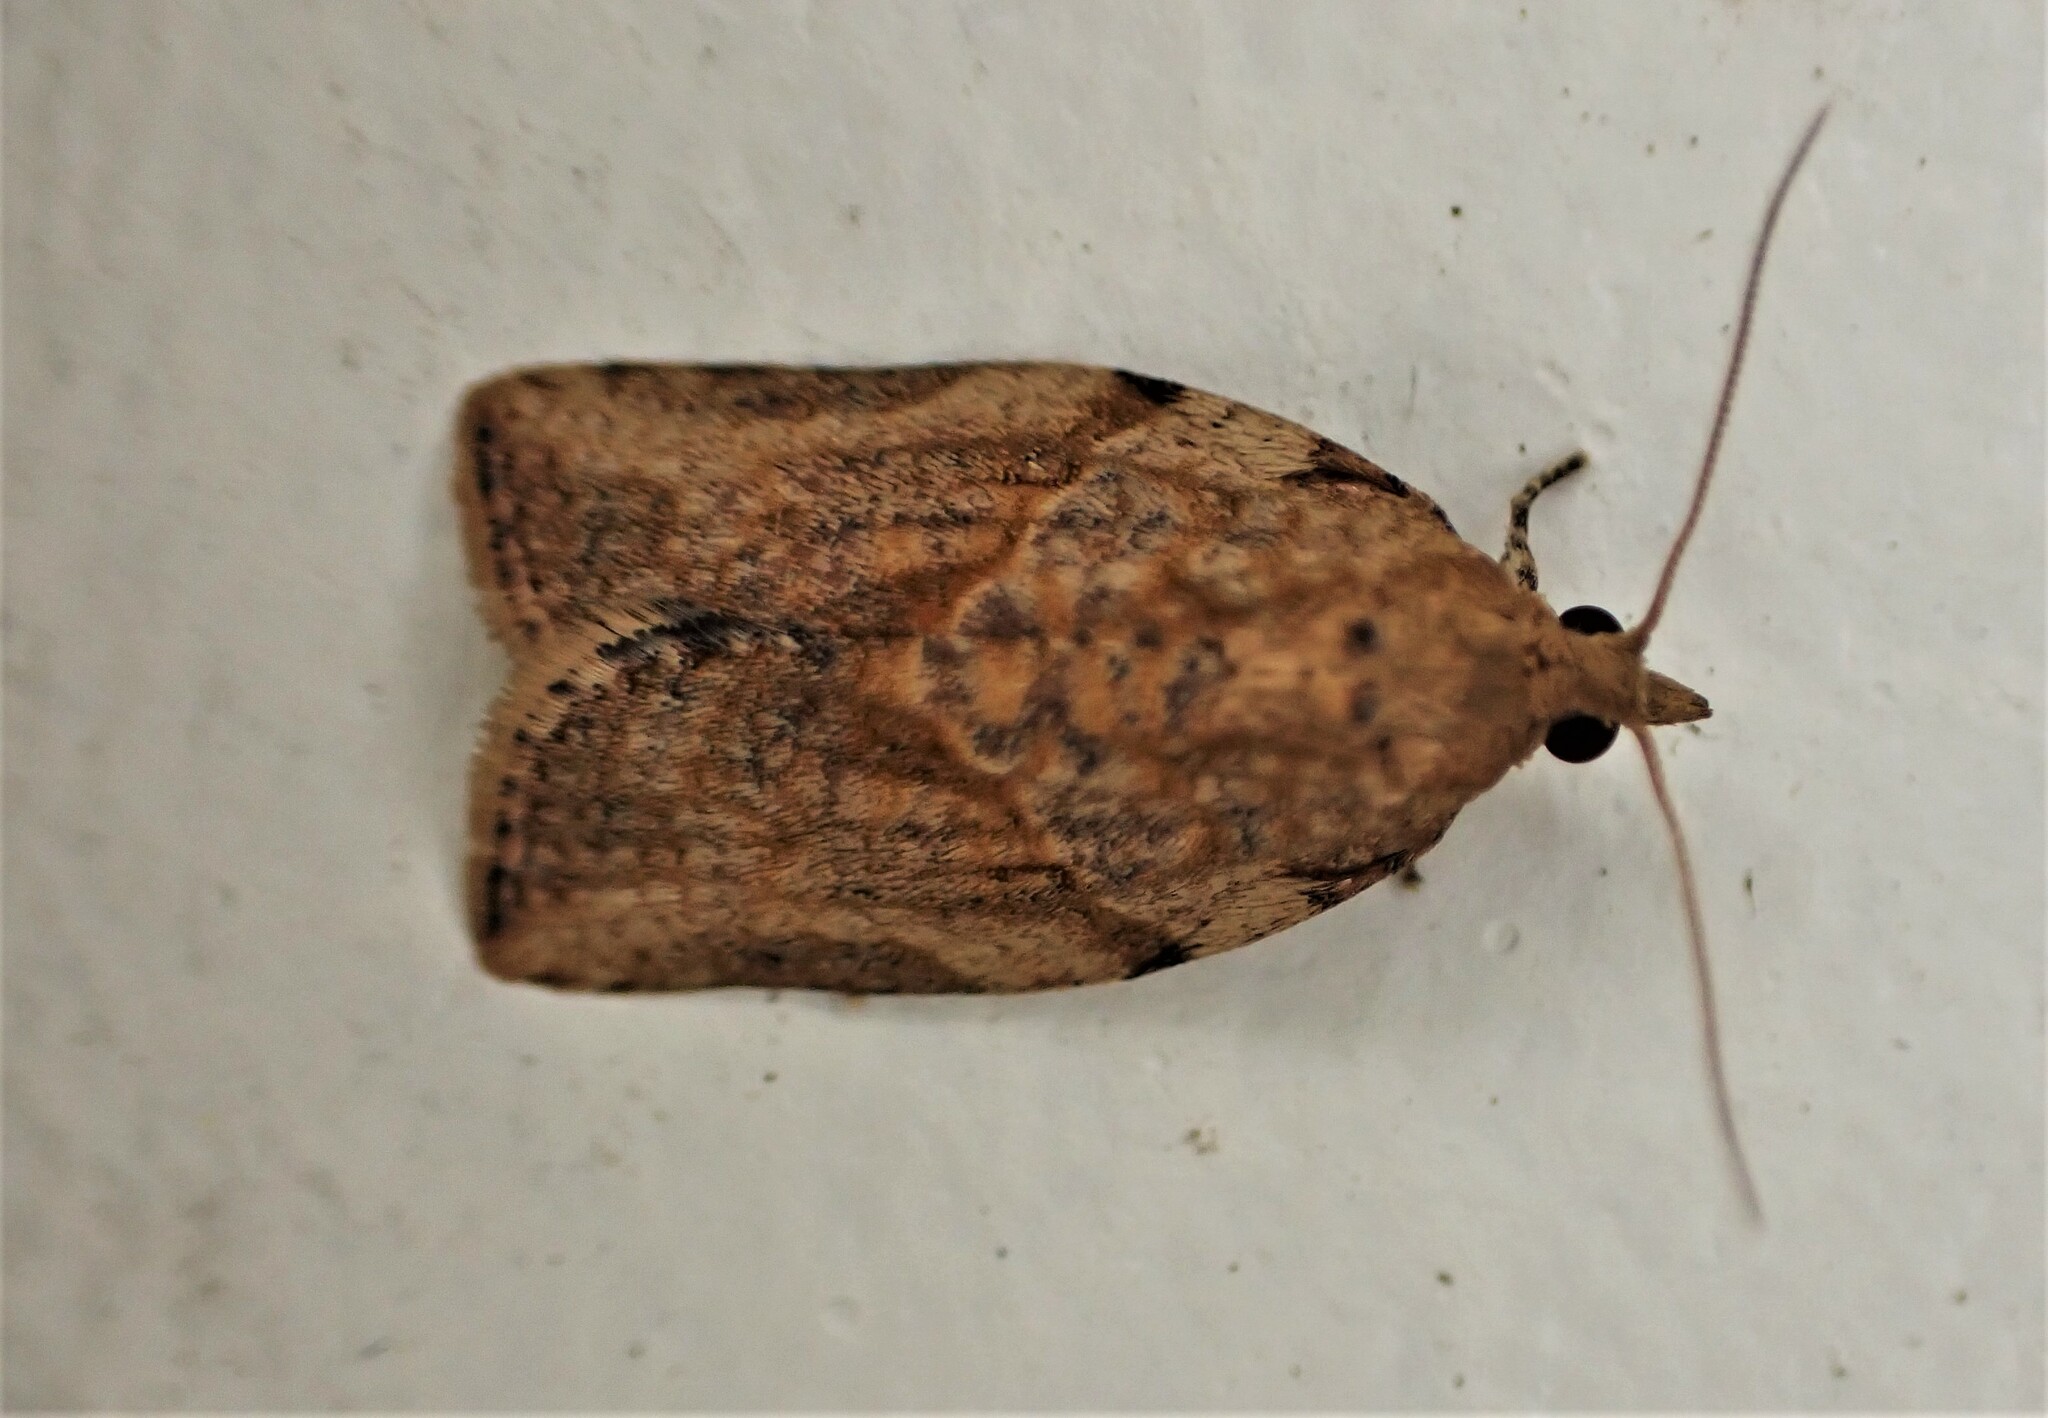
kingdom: Animalia
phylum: Arthropoda
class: Insecta
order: Lepidoptera
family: Tortricidae
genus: Epiphyas
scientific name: Epiphyas postvittana
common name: Light brown apple moth
